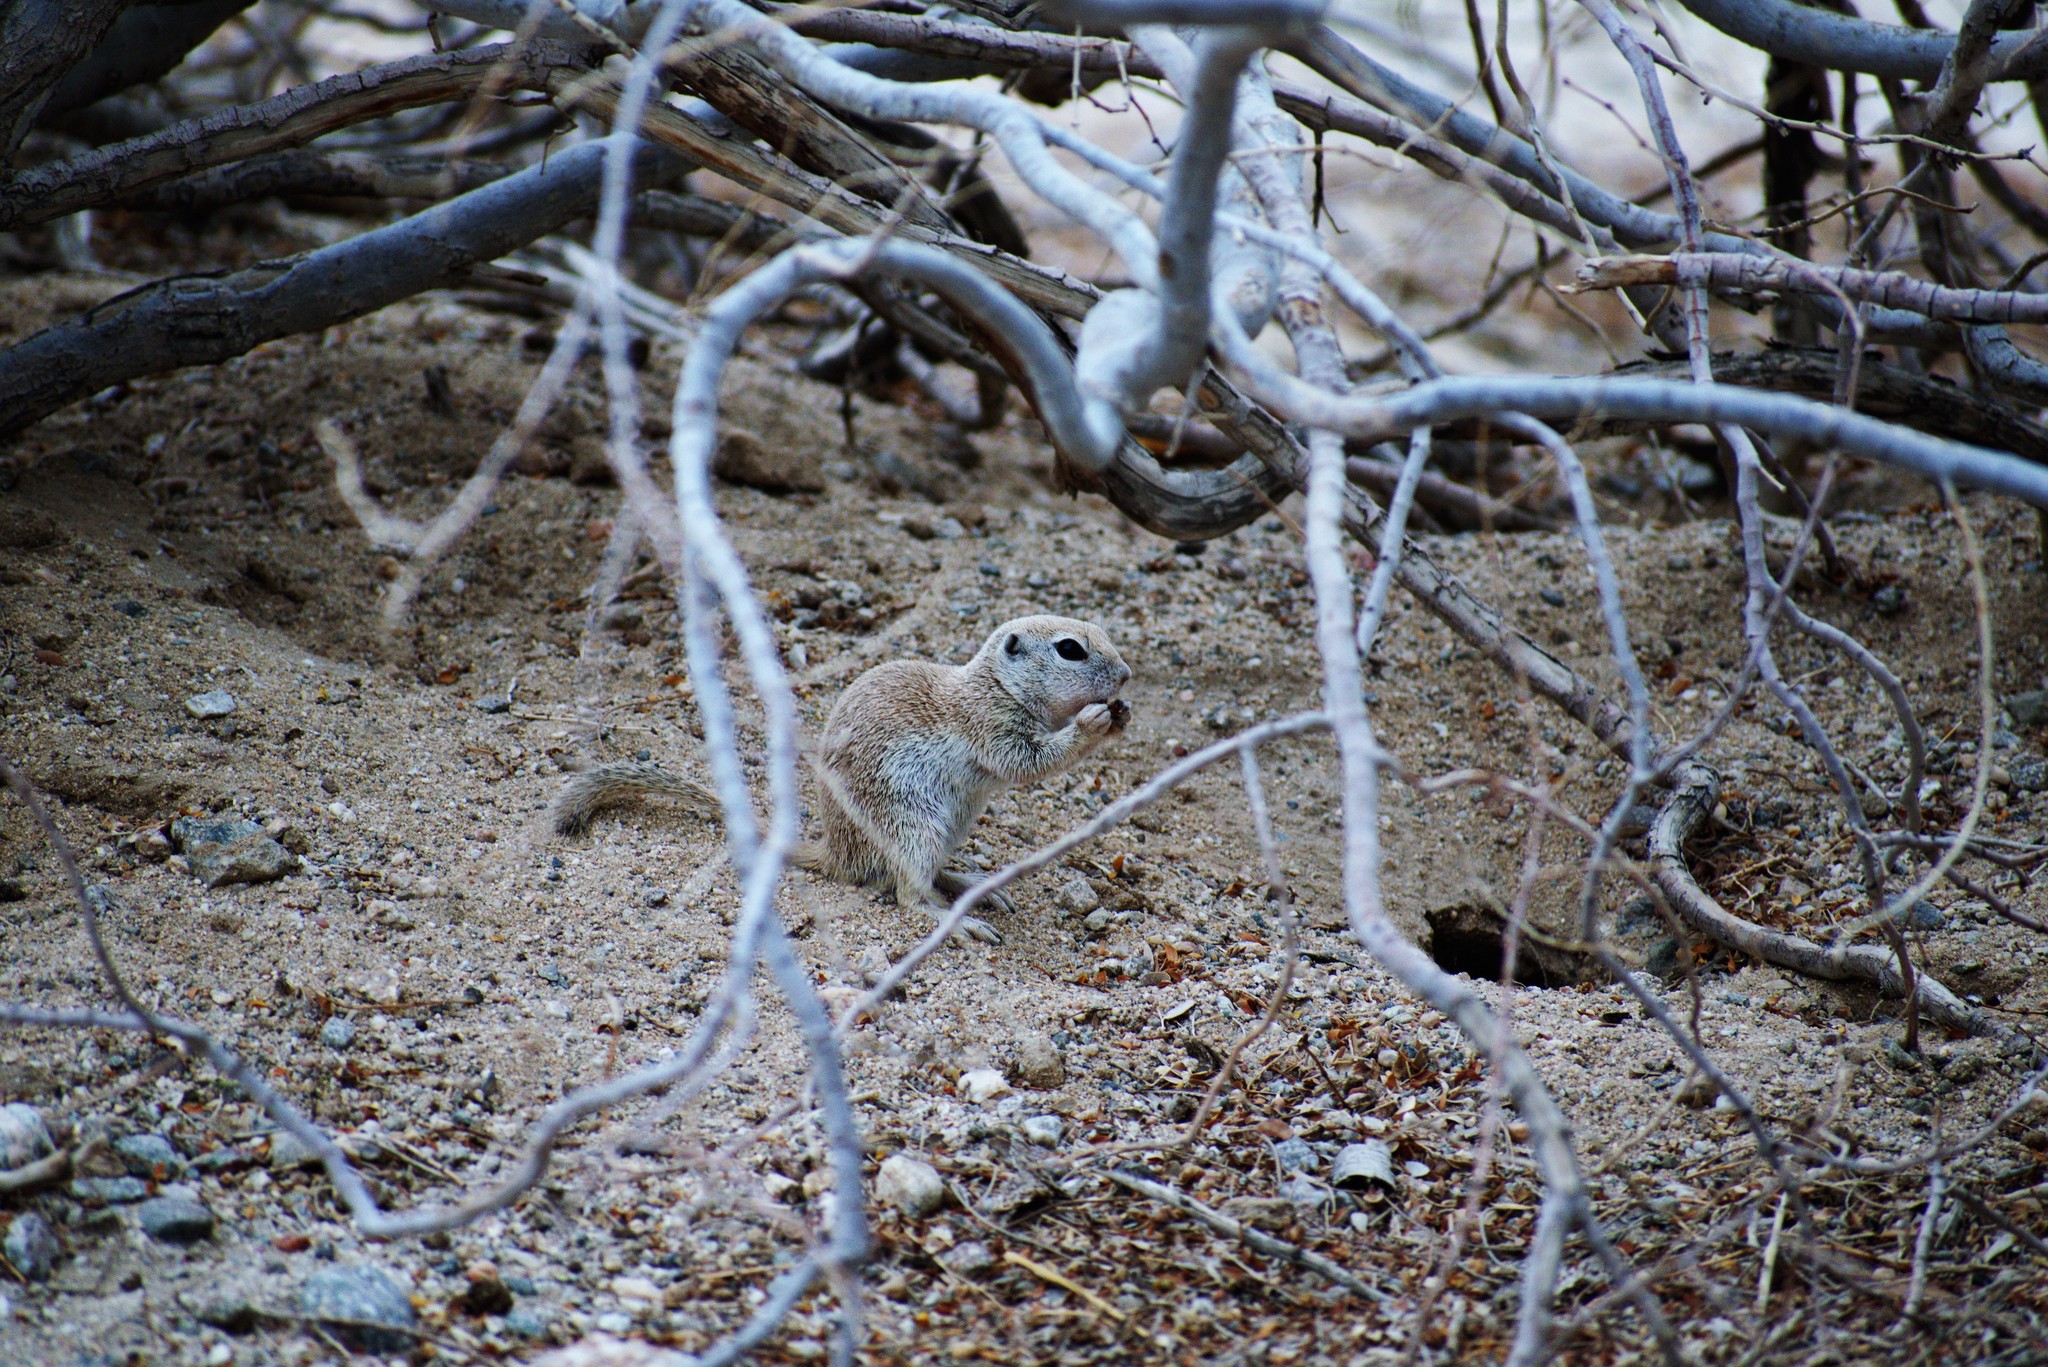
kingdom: Animalia
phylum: Chordata
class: Mammalia
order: Rodentia
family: Sciuridae
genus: Xerospermophilus
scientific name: Xerospermophilus tereticaudus
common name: Round-tailed ground squirrel
